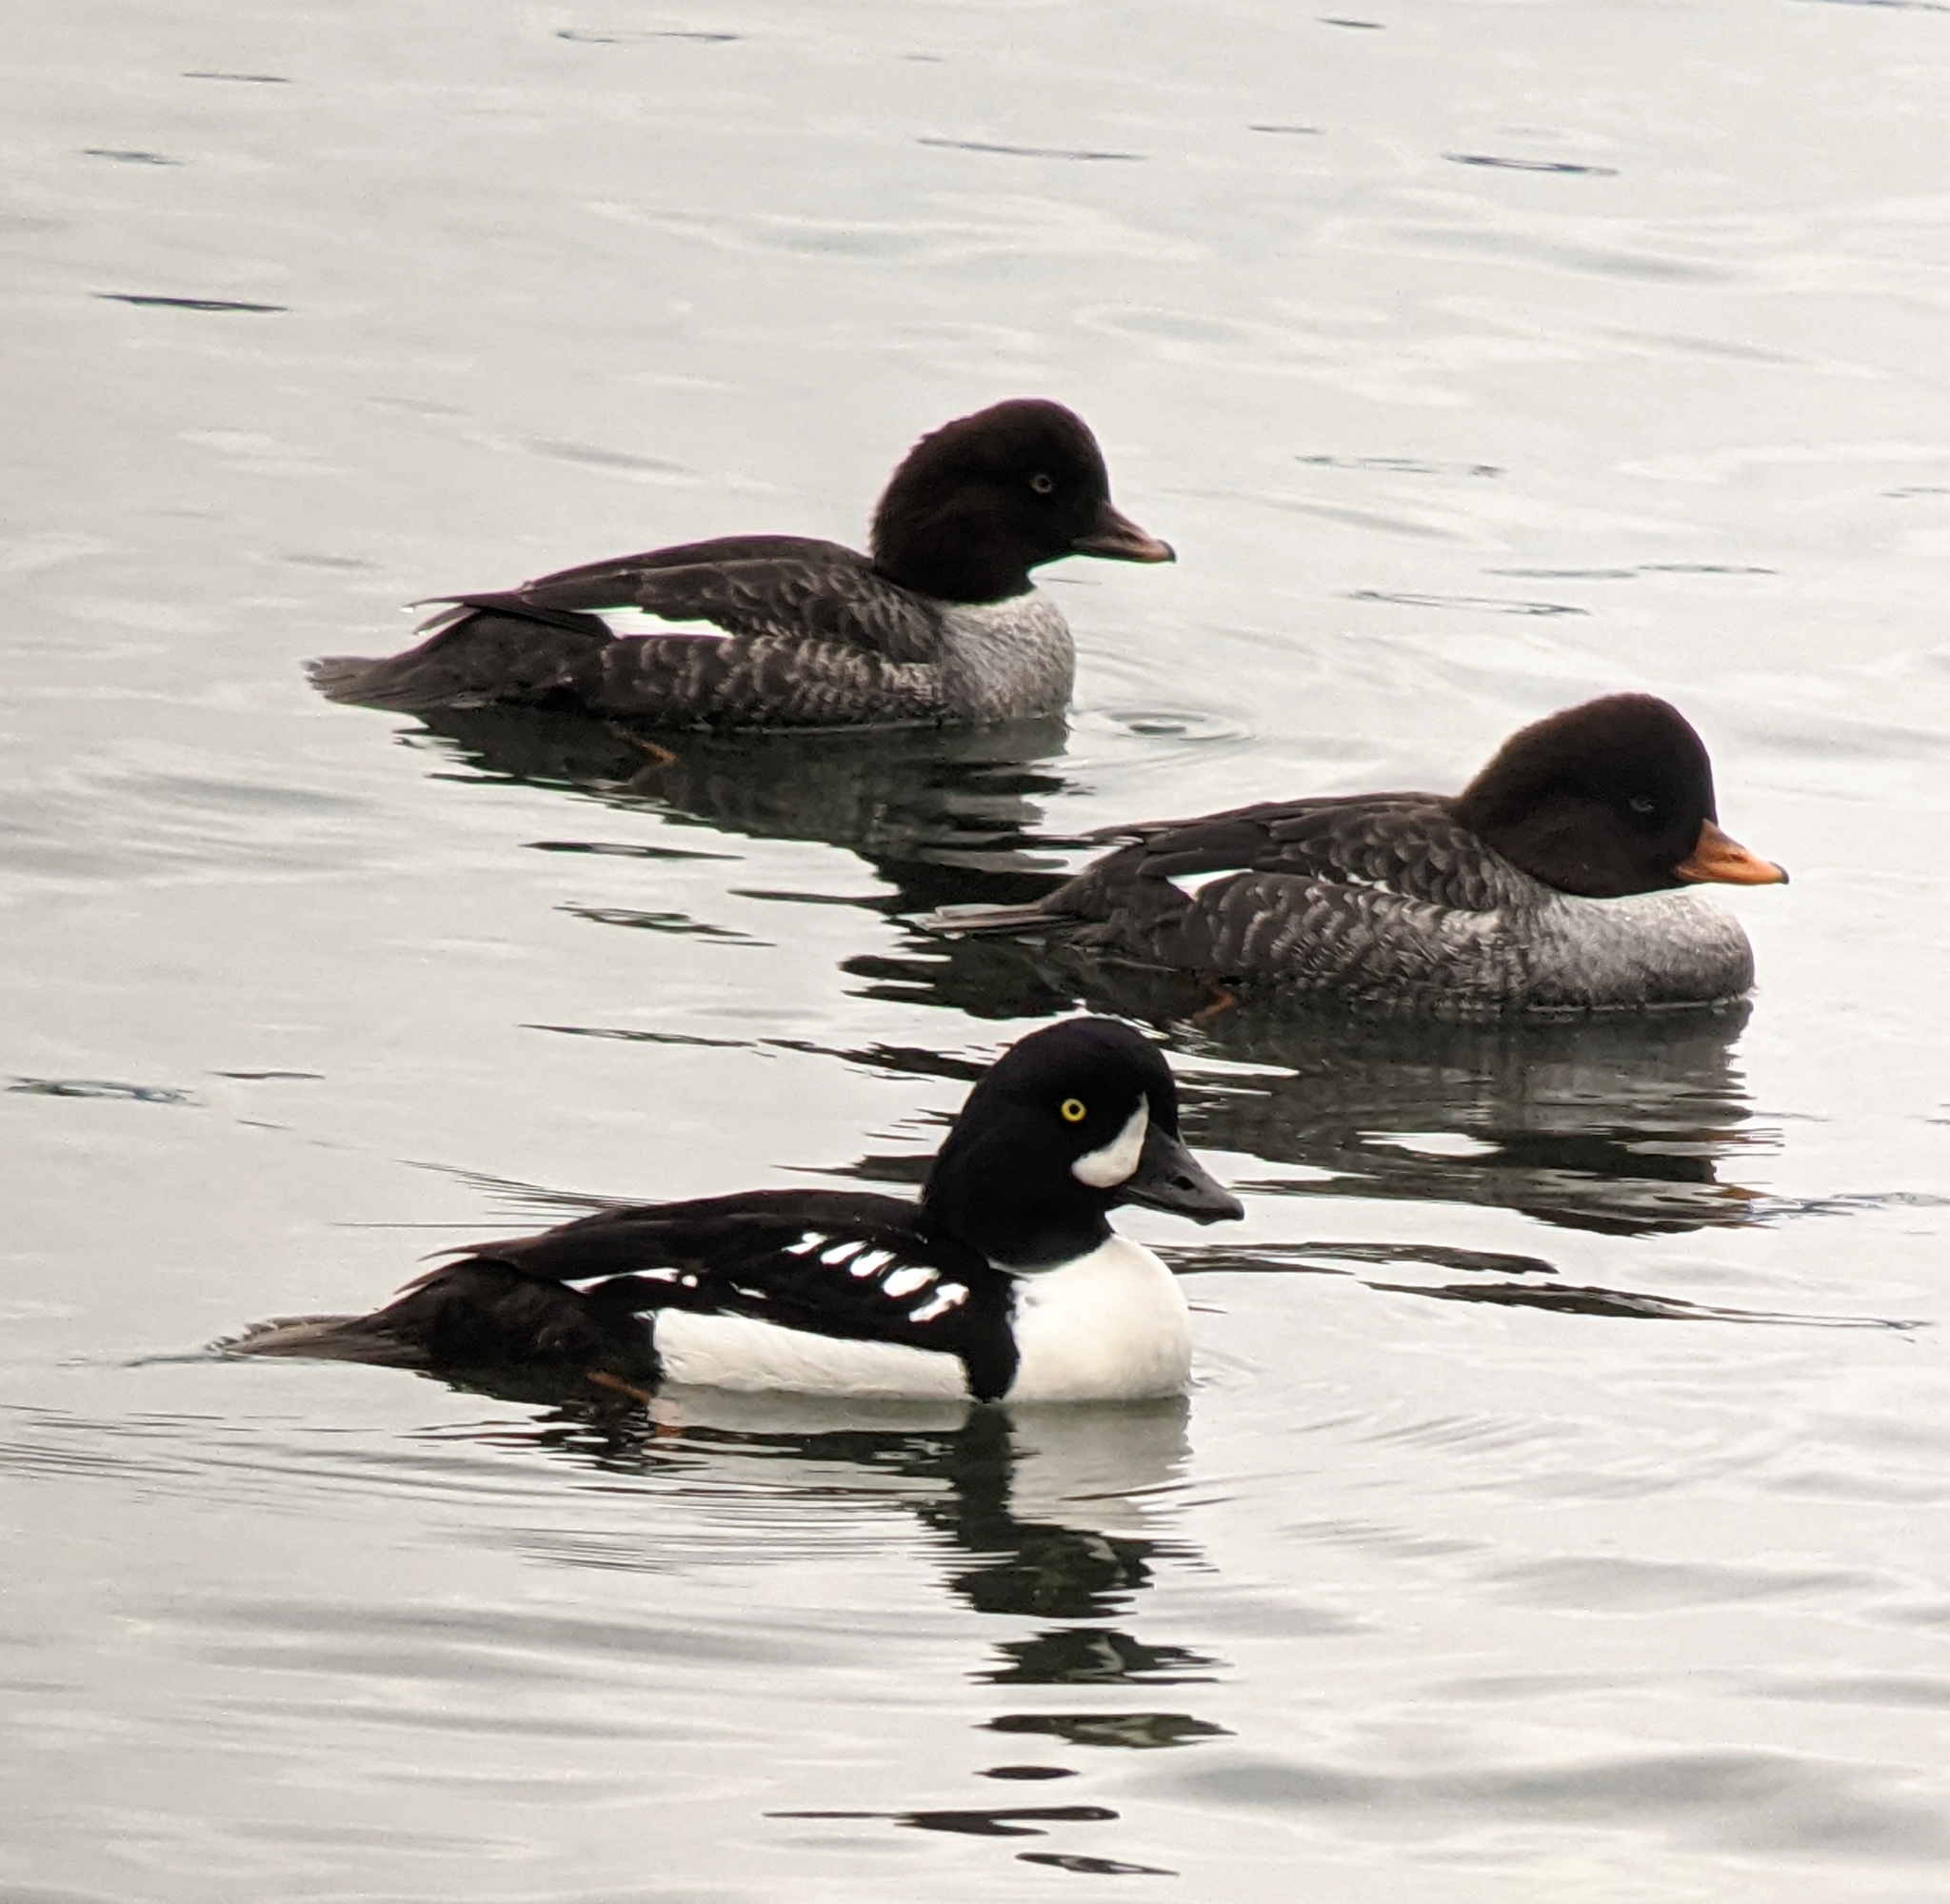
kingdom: Animalia
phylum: Chordata
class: Aves
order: Anseriformes
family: Anatidae
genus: Bucephala
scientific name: Bucephala islandica
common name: Barrow's goldeneye
